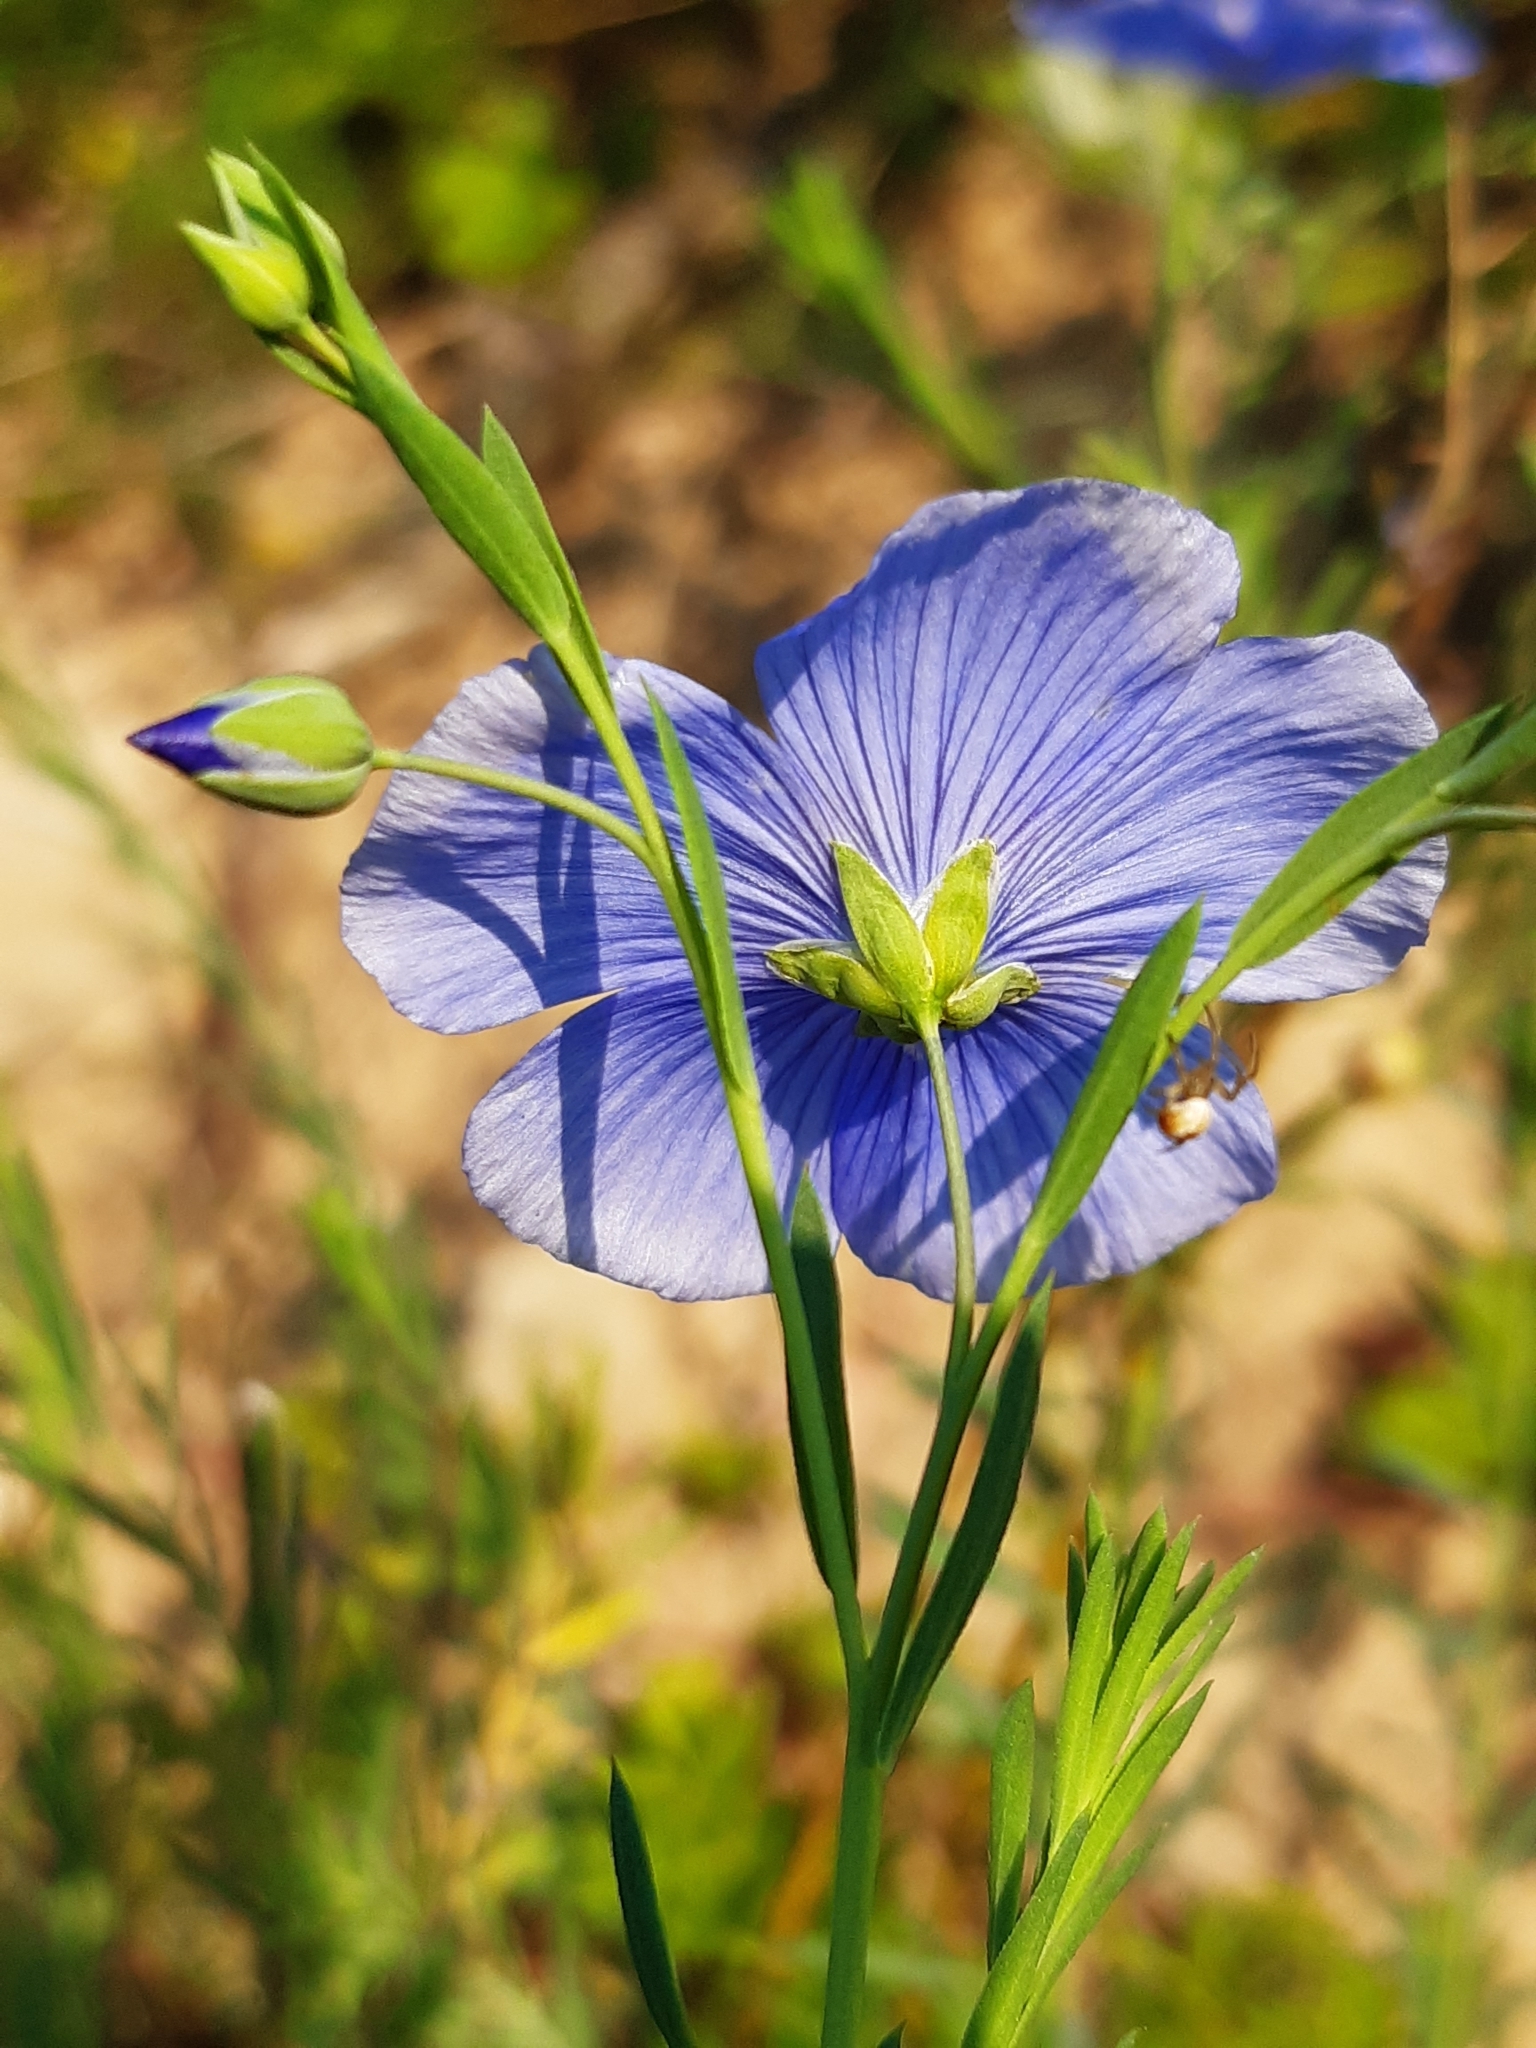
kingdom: Plantae
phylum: Tracheophyta
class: Magnoliopsida
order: Malpighiales
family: Linaceae
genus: Linum
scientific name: Linum austriacum
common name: Austrian flax
